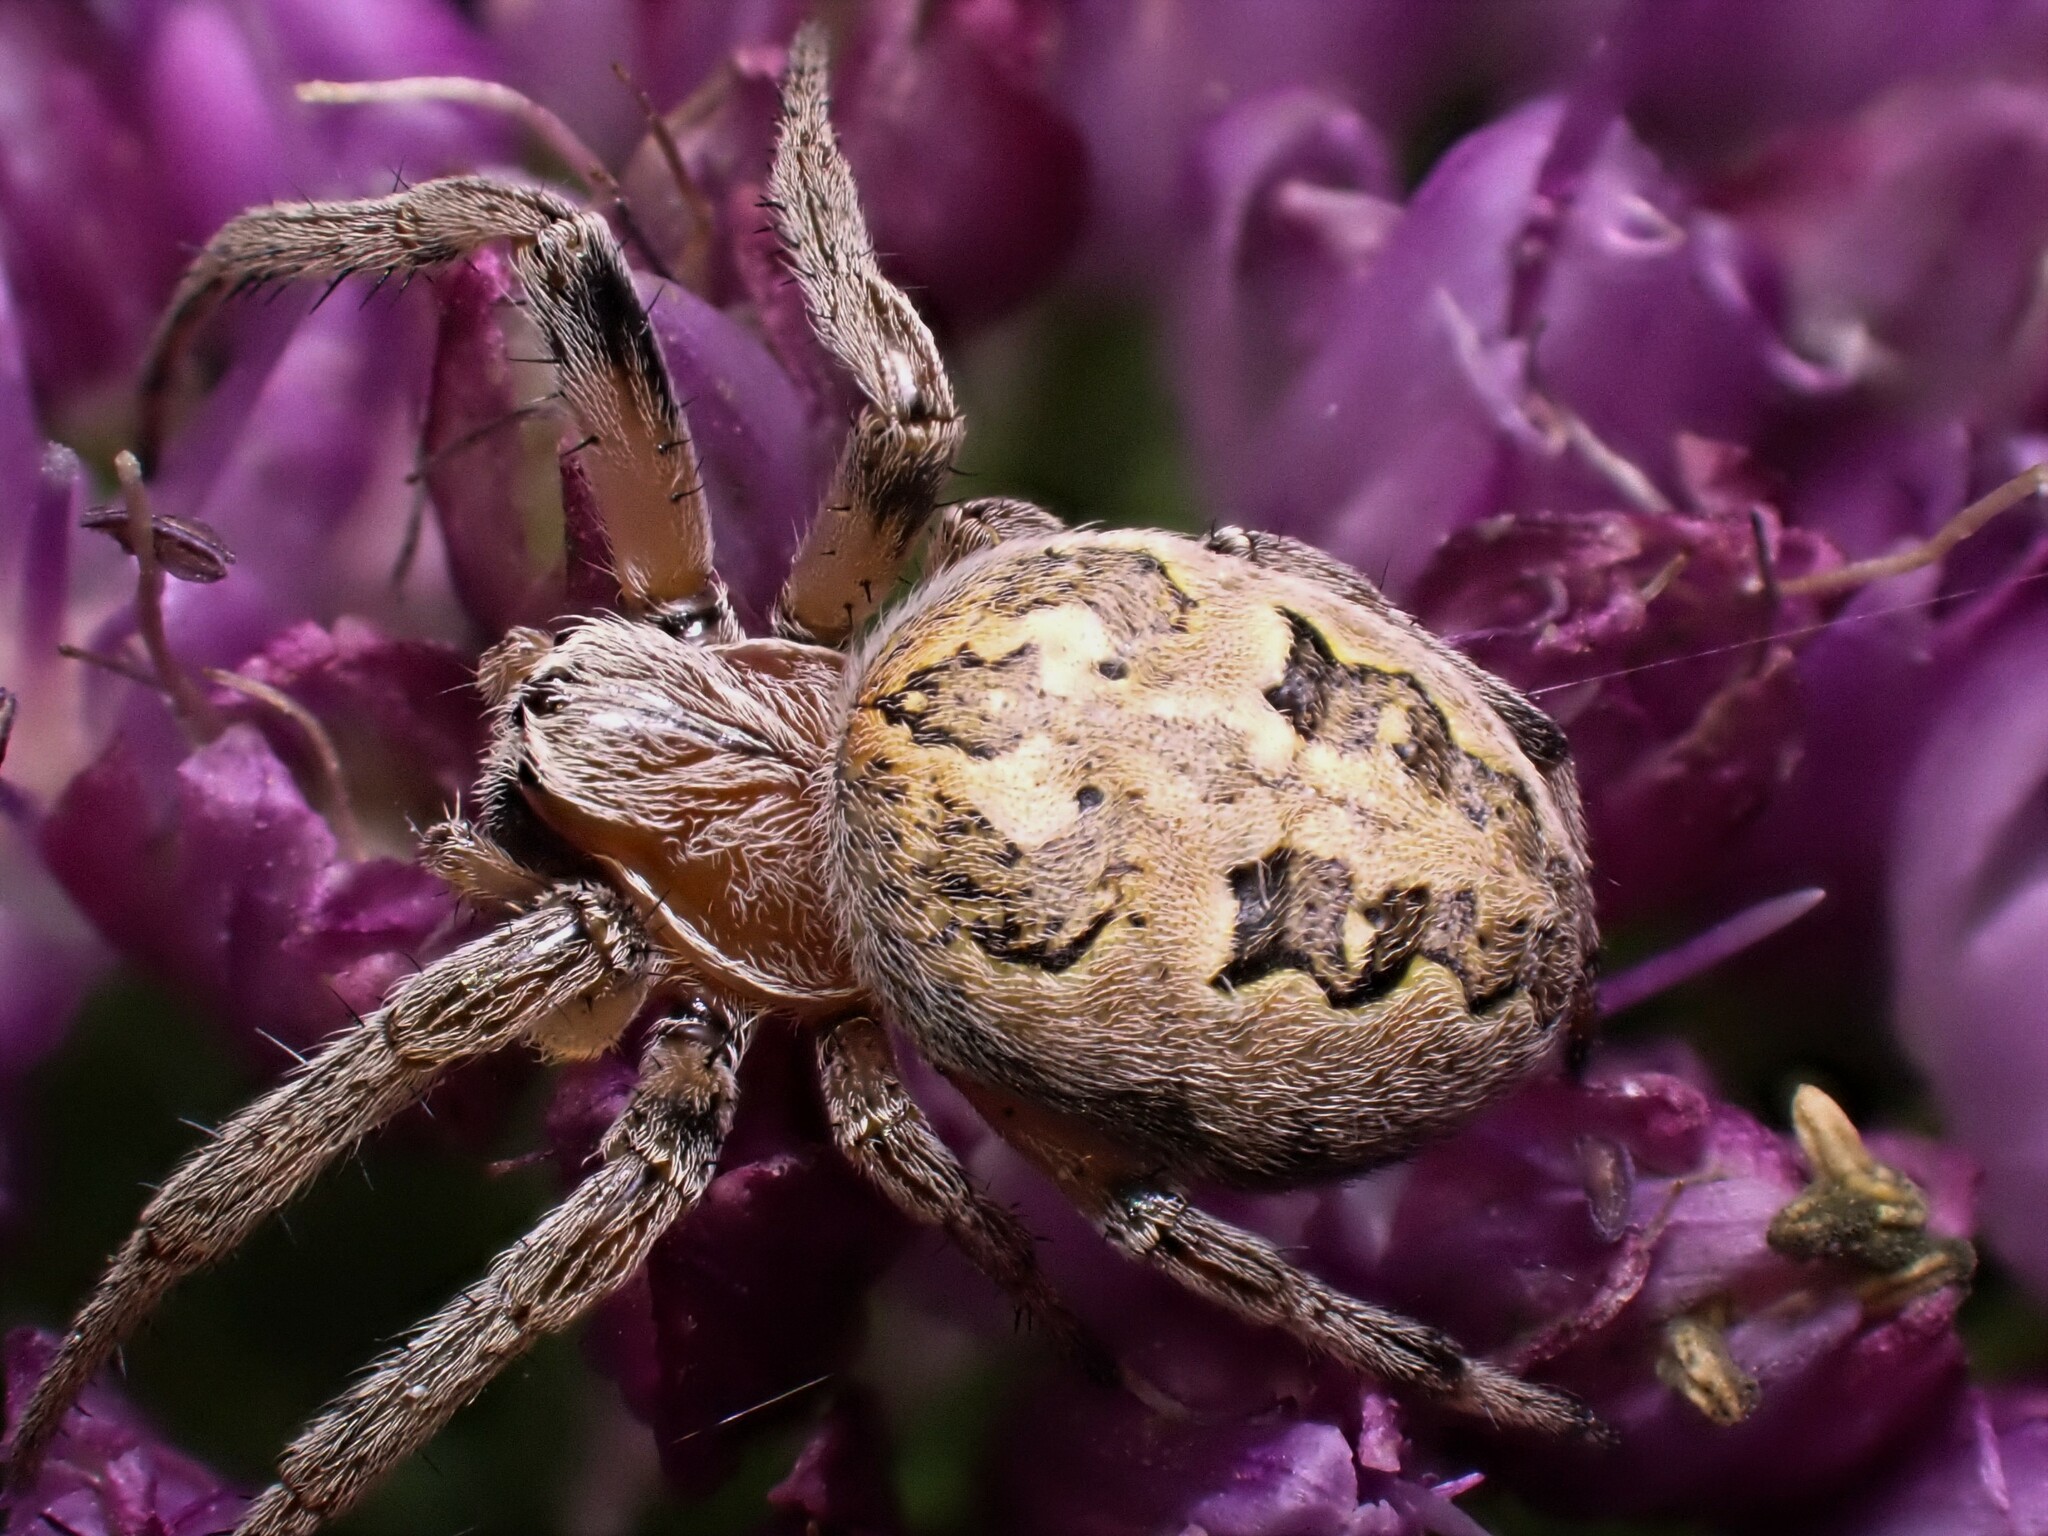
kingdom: Animalia
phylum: Arthropoda
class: Arachnida
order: Araneae
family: Araneidae
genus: Larinioides
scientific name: Larinioides cornutus
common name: Furrow orbweaver
